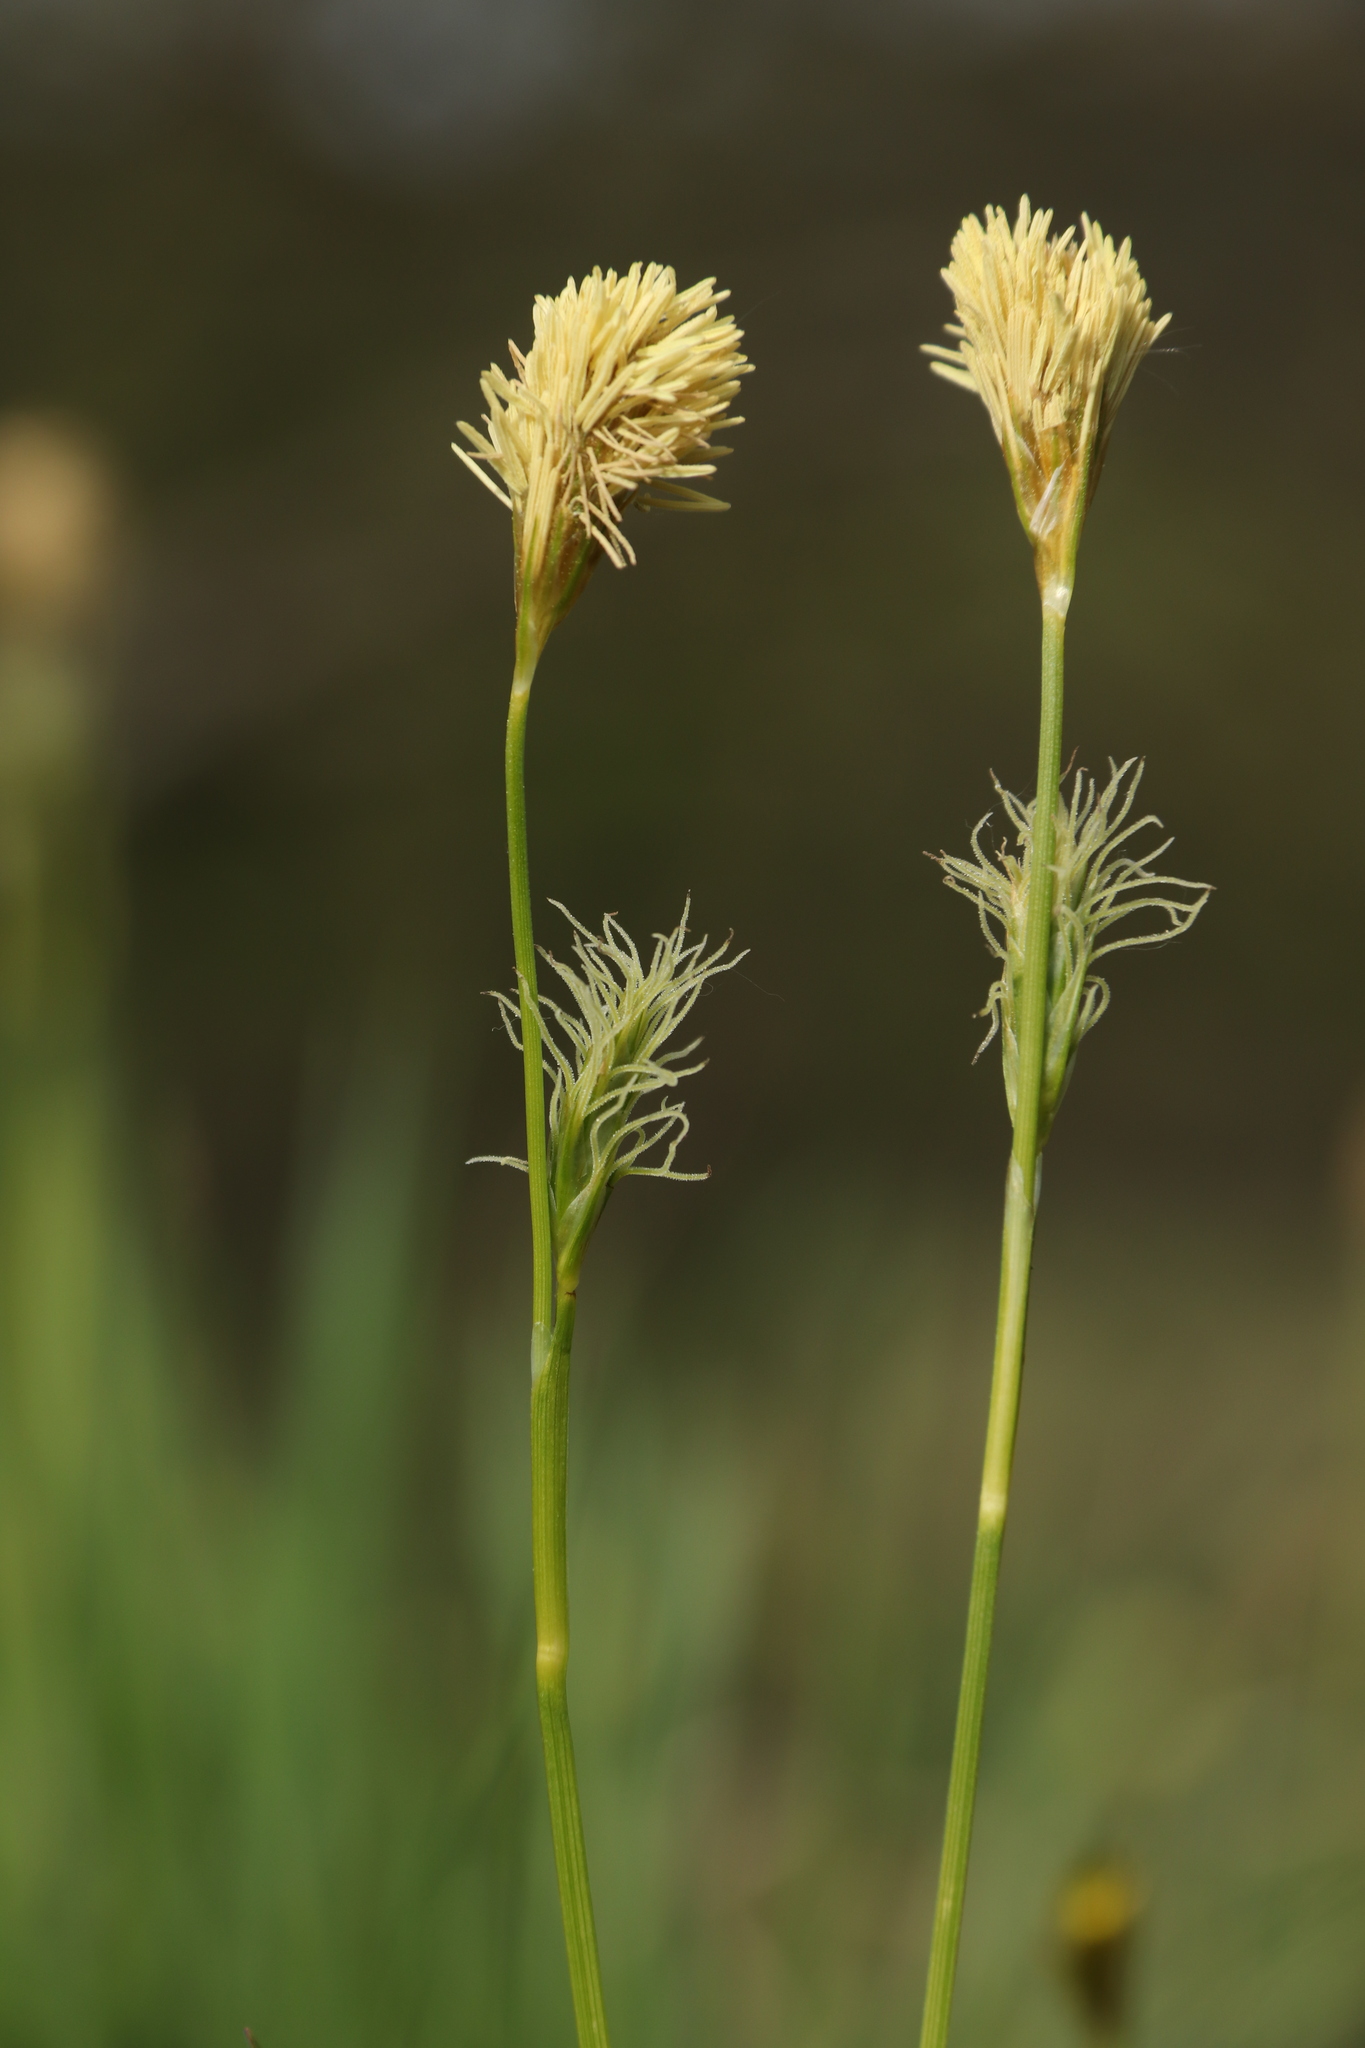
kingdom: Plantae
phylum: Tracheophyta
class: Liliopsida
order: Poales
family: Cyperaceae
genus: Carex
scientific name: Carex michelii
